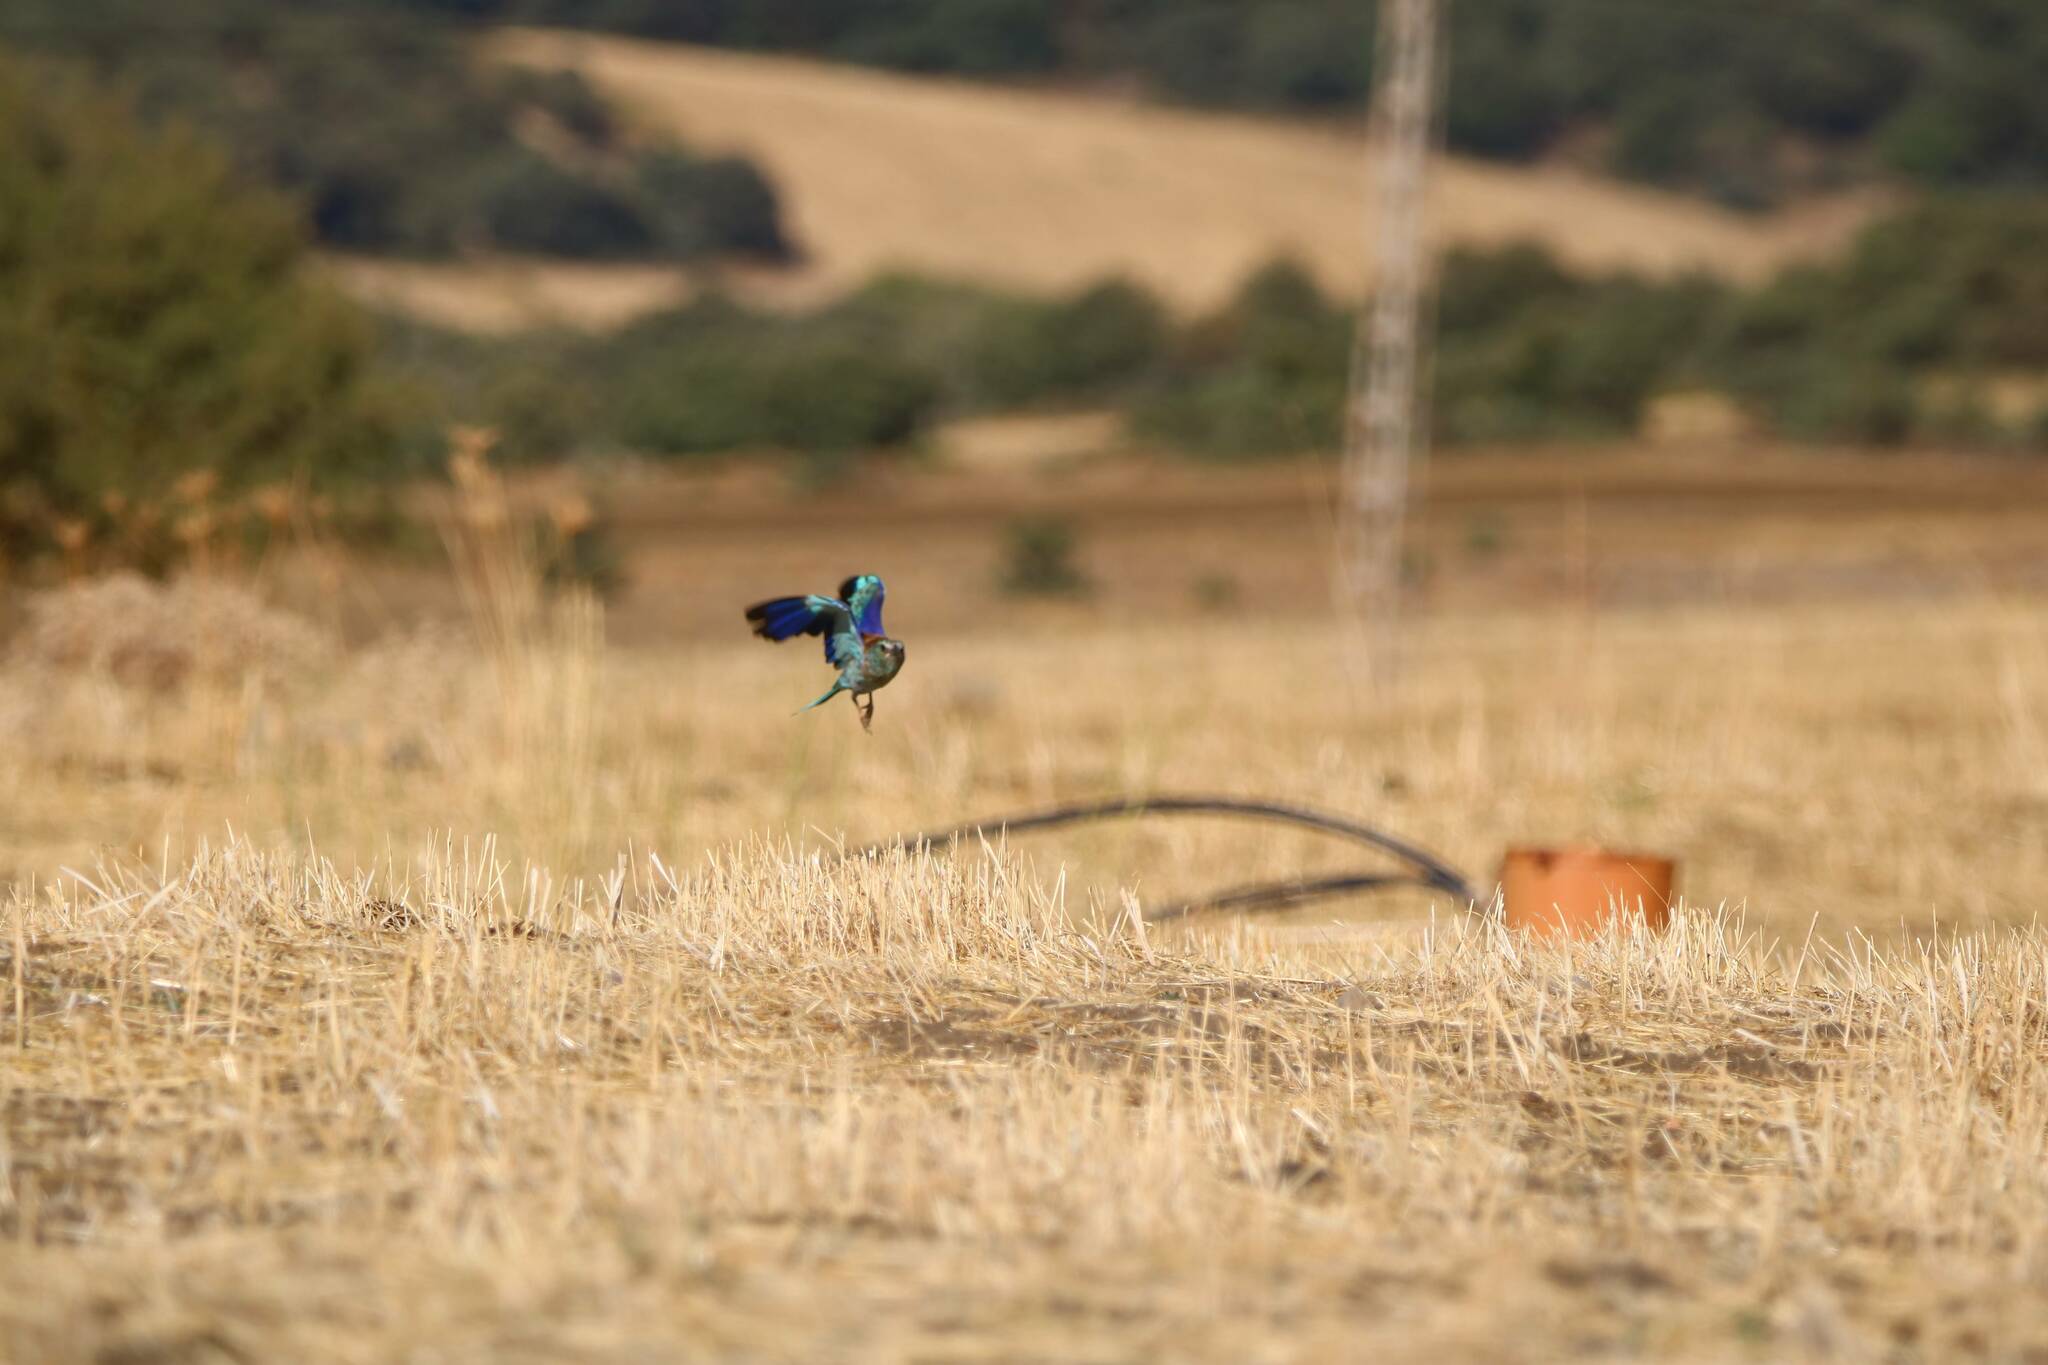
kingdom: Animalia
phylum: Chordata
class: Aves
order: Coraciiformes
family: Coraciidae
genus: Coracias
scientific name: Coracias garrulus
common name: European roller
